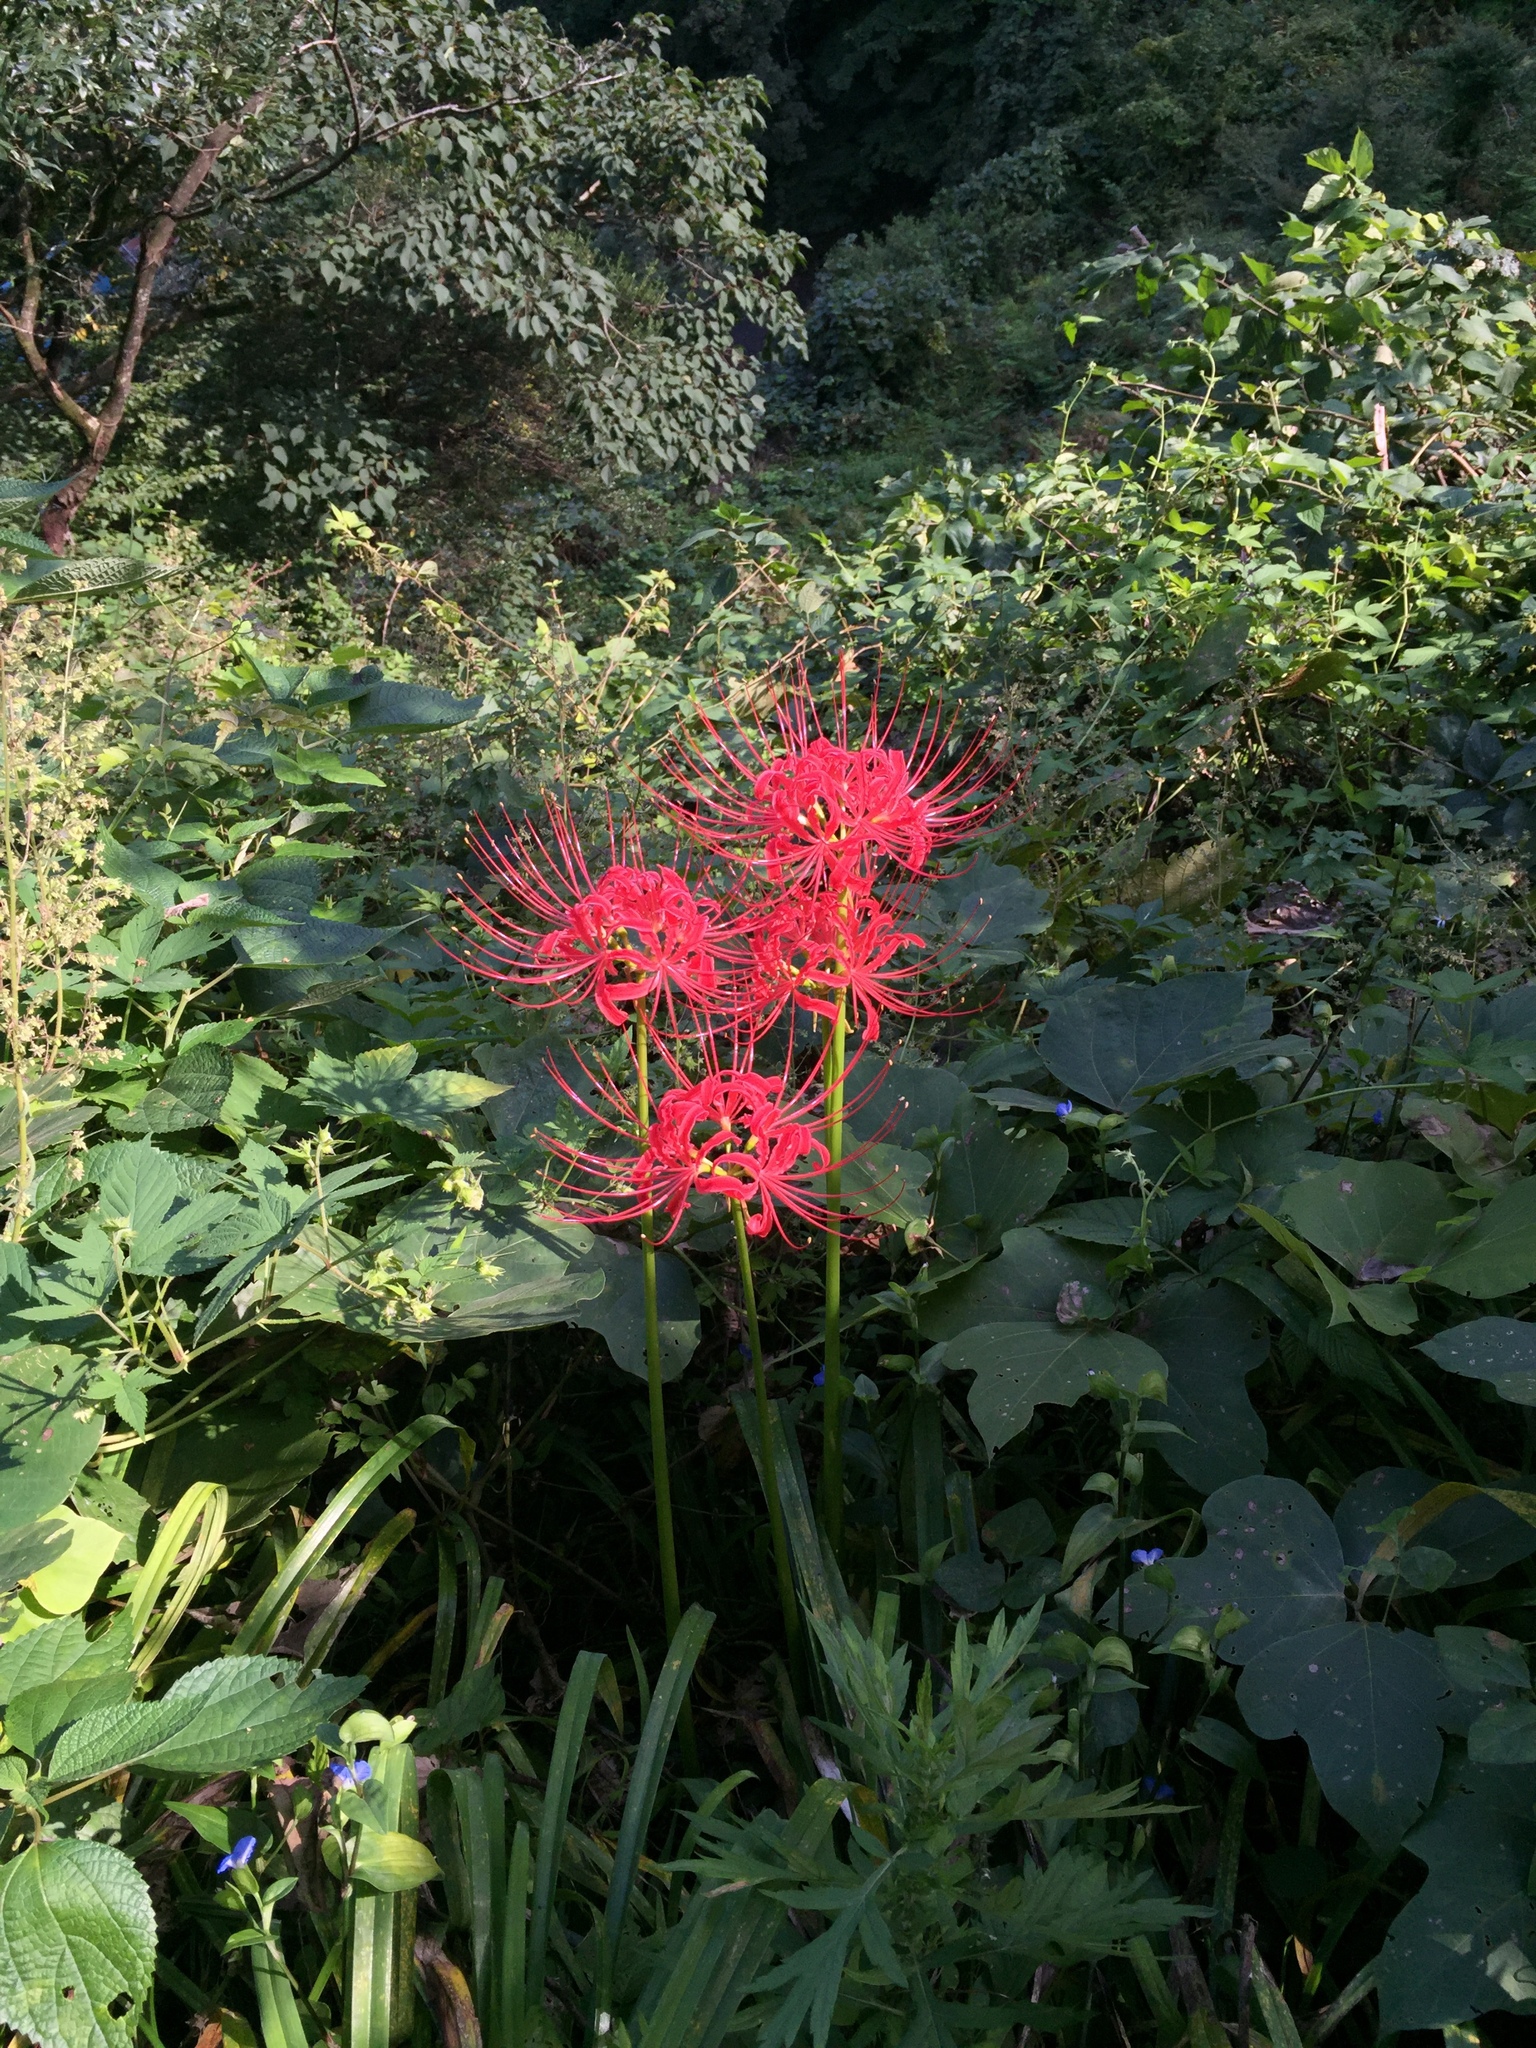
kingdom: Plantae
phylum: Tracheophyta
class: Liliopsida
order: Asparagales
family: Amaryllidaceae
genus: Lycoris
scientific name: Lycoris radiata
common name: Red spider lily
